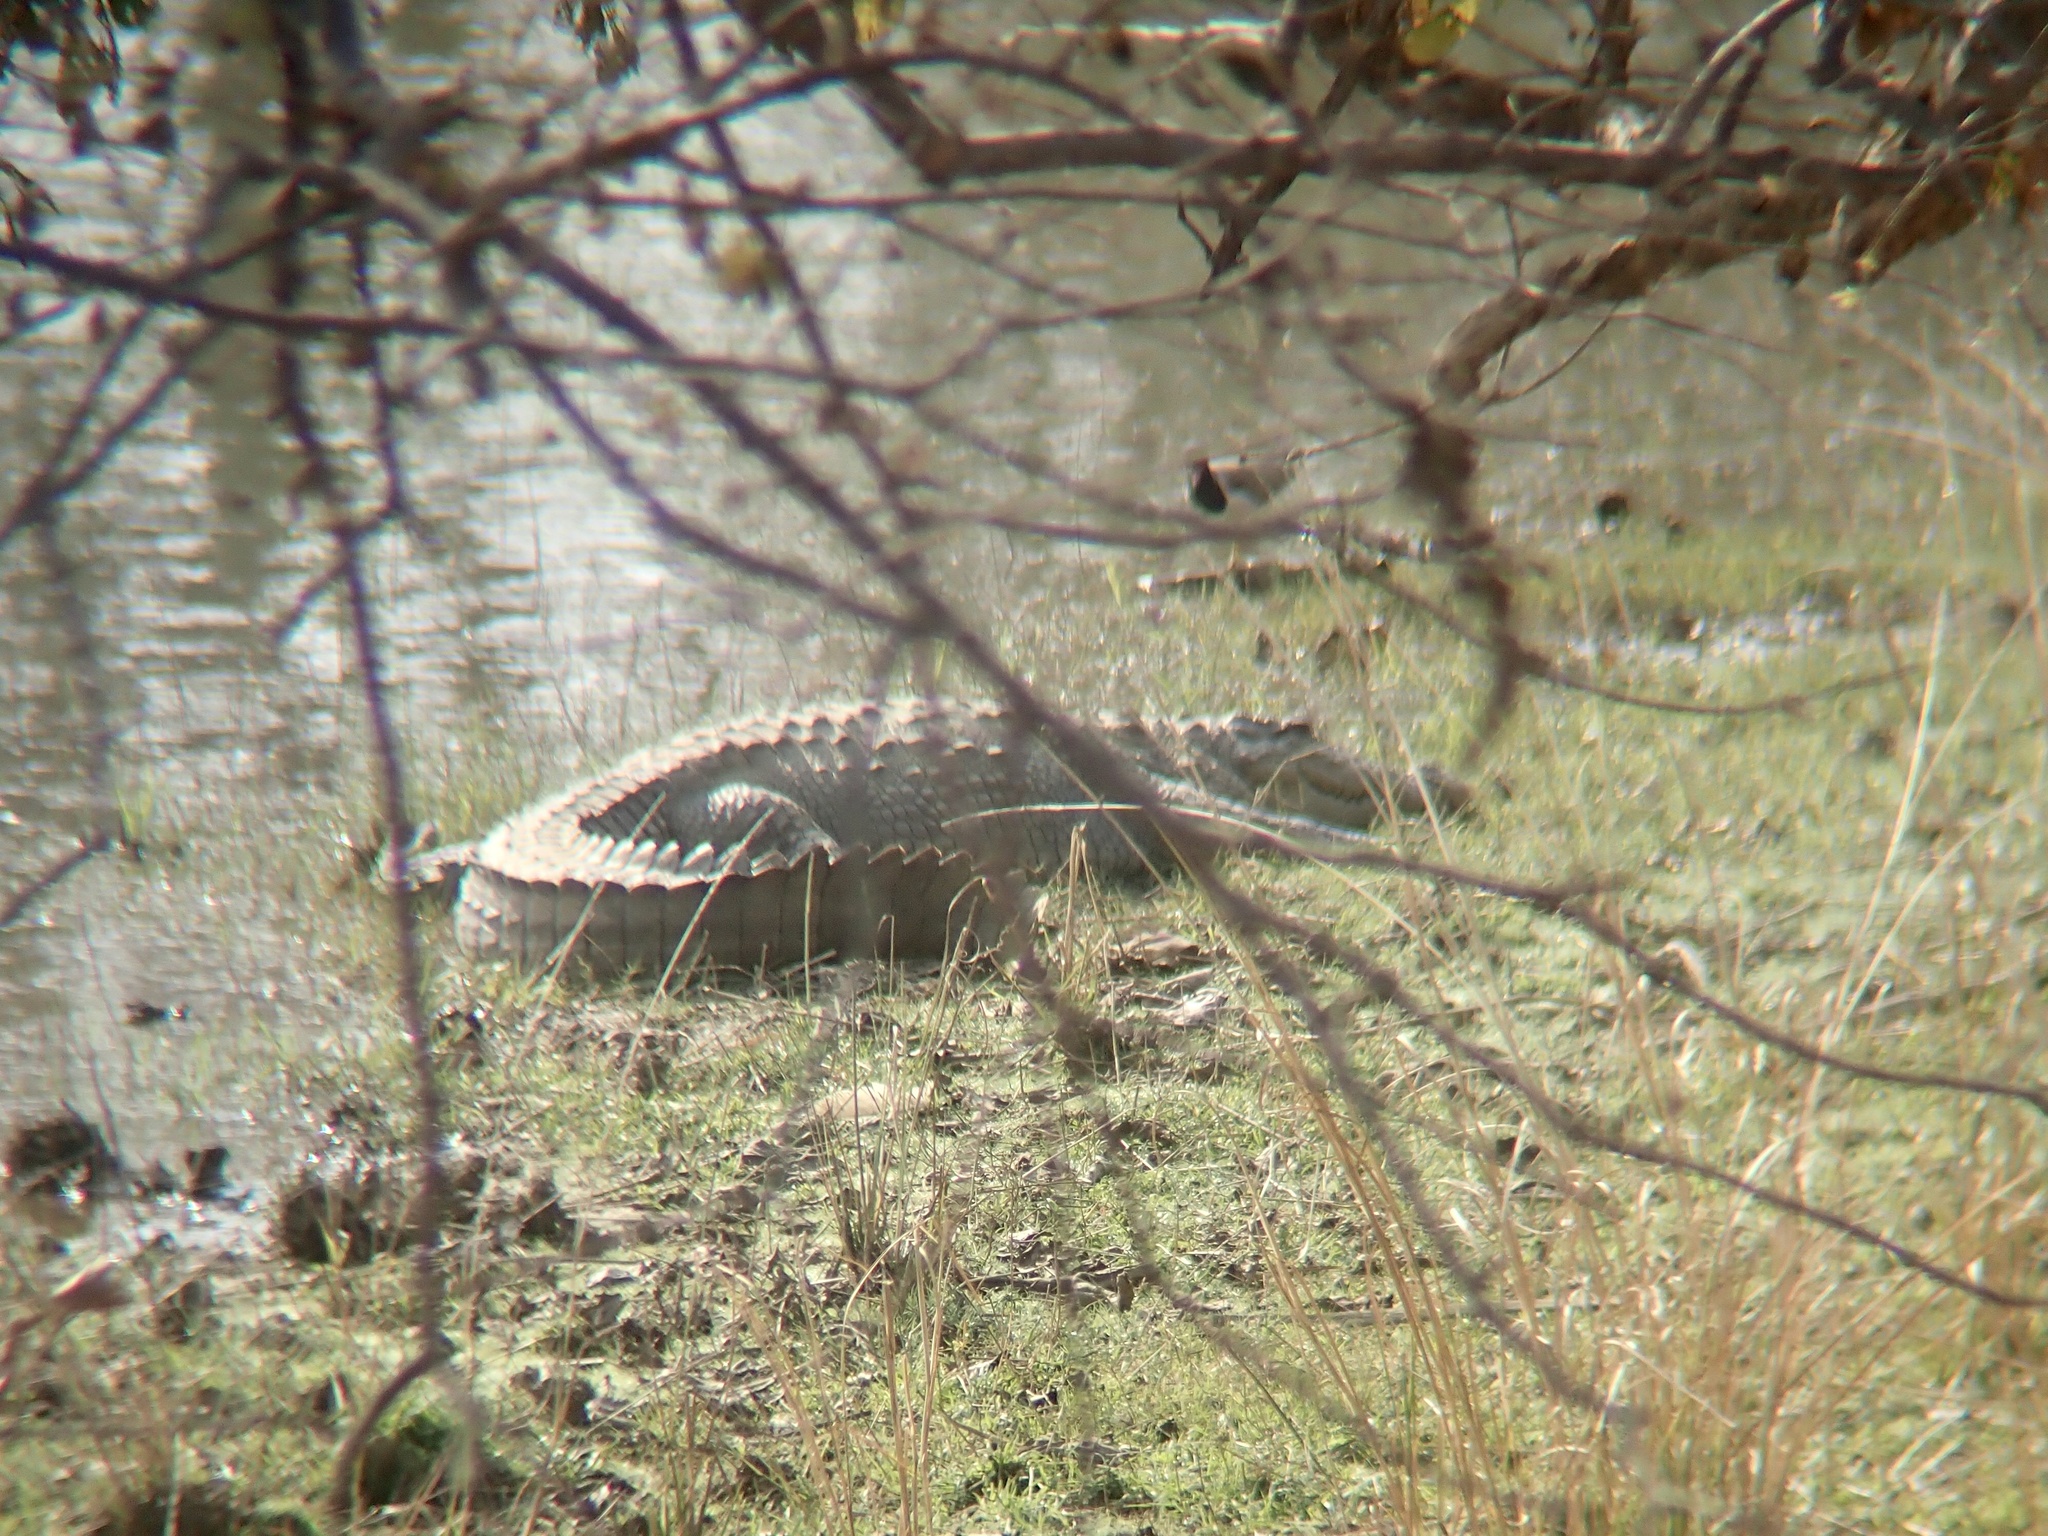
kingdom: Animalia
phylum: Chordata
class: Crocodylia
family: Crocodylidae
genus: Crocodylus
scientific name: Crocodylus palustris
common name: Mugger crocodile
